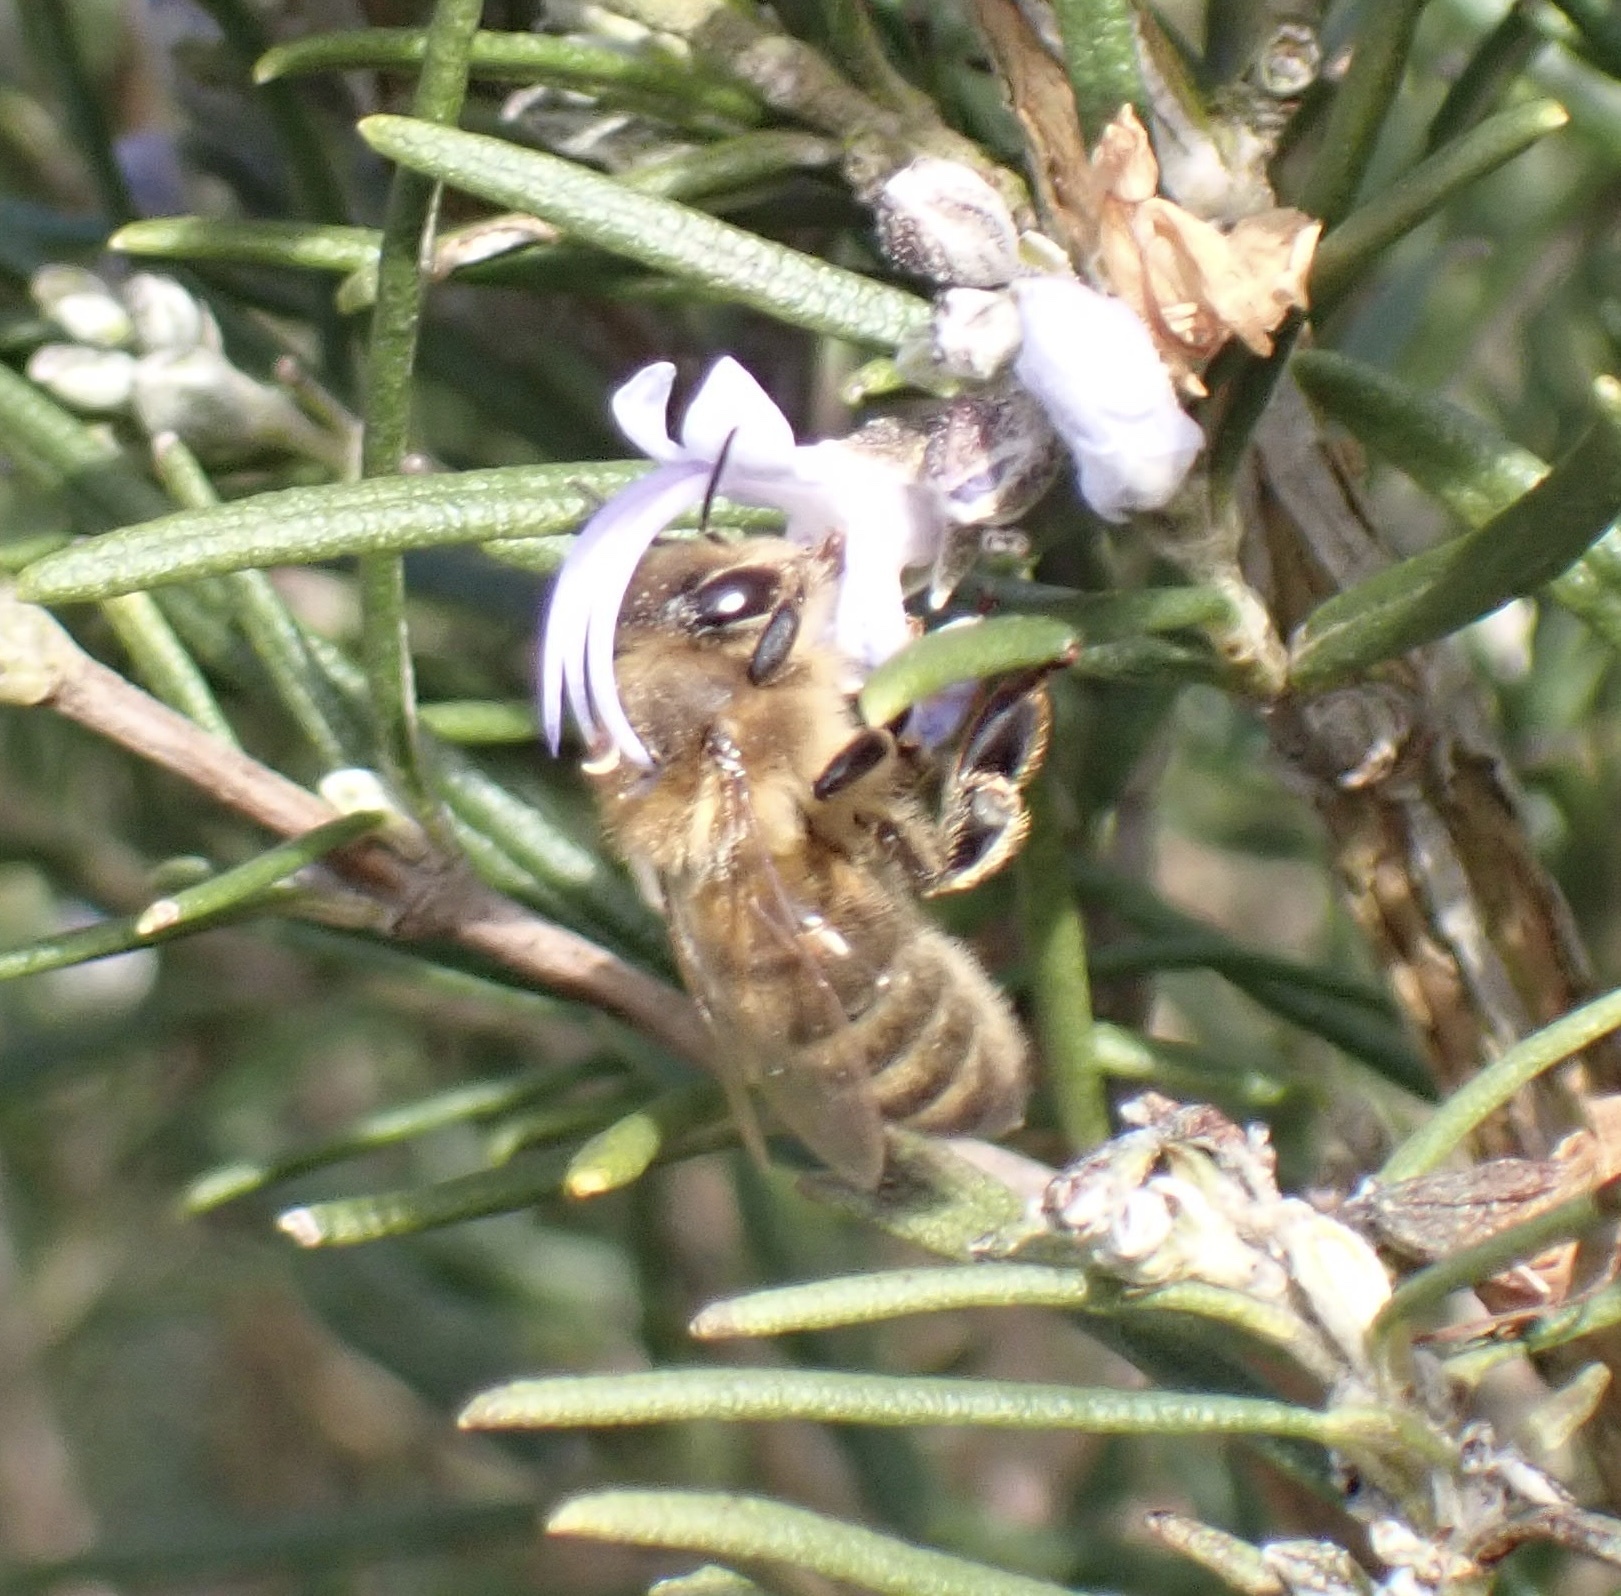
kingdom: Animalia
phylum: Arthropoda
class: Insecta
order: Hymenoptera
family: Apidae
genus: Apis
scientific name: Apis mellifera
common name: Honey bee
